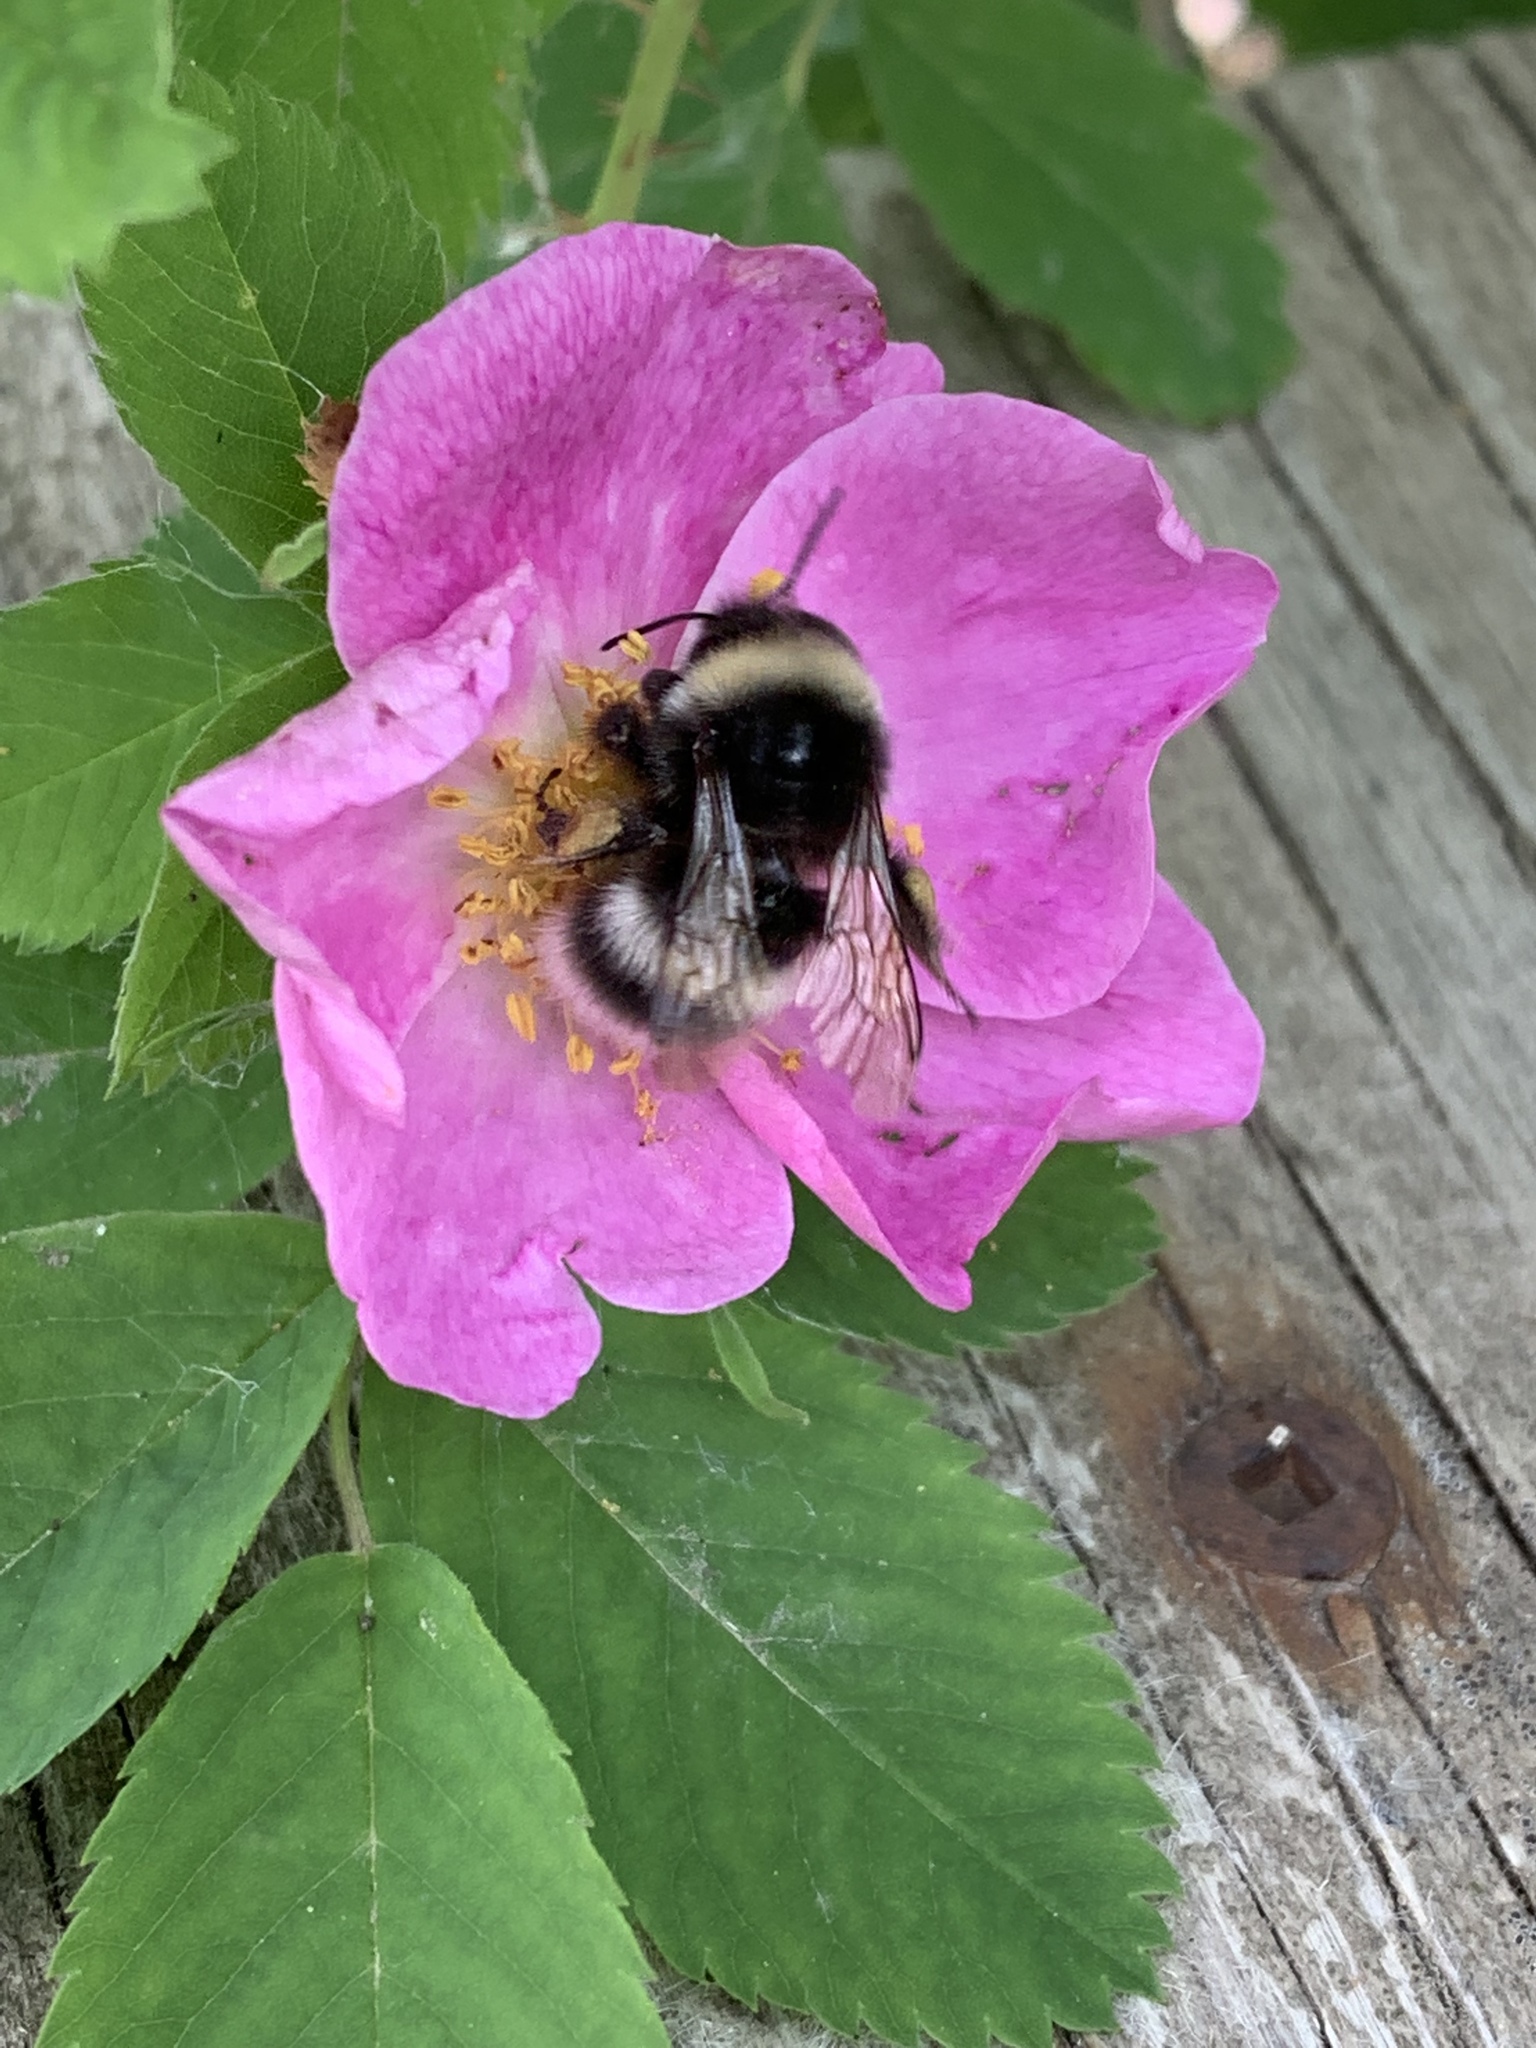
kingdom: Animalia
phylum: Arthropoda
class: Insecta
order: Hymenoptera
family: Apidae
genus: Bombus
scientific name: Bombus cryptarum
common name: Cryptic bumblebee
